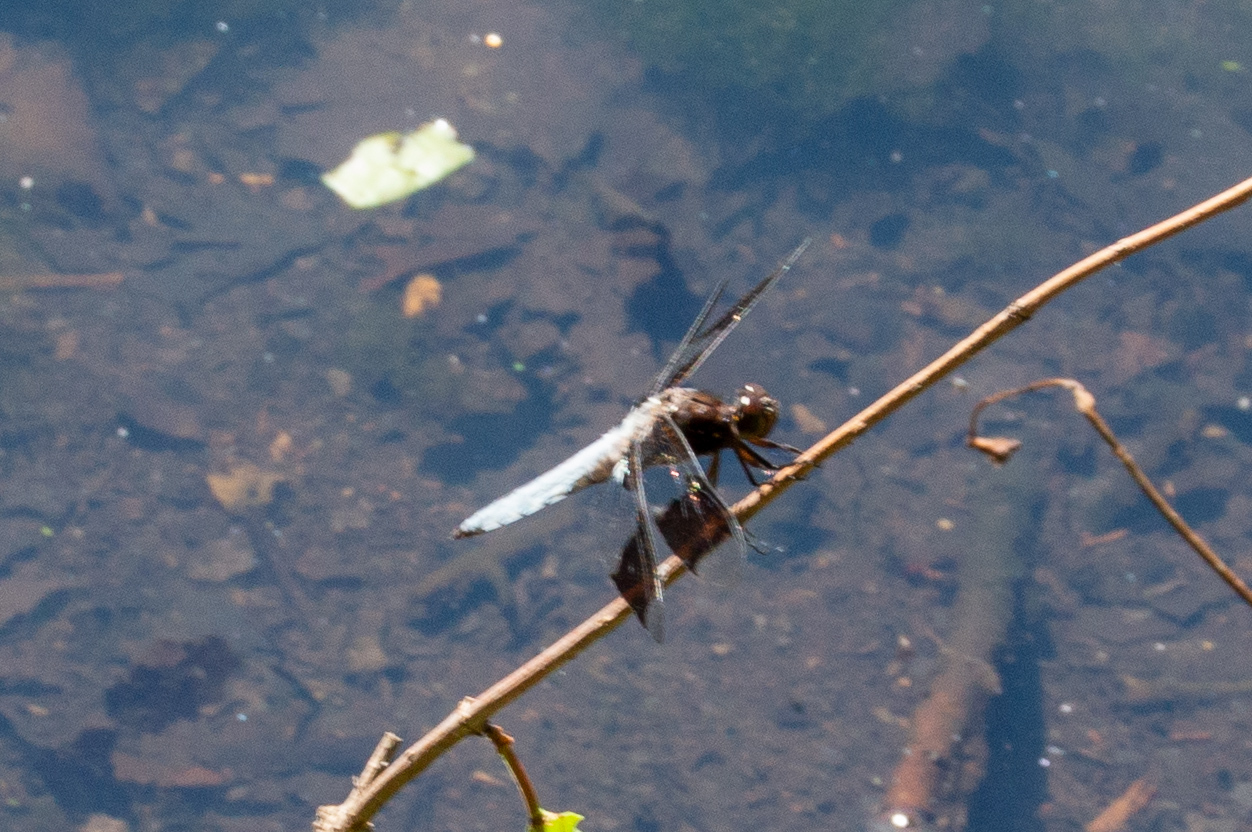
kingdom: Animalia
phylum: Arthropoda
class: Insecta
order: Odonata
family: Libellulidae
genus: Plathemis
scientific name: Plathemis lydia
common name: Common whitetail
